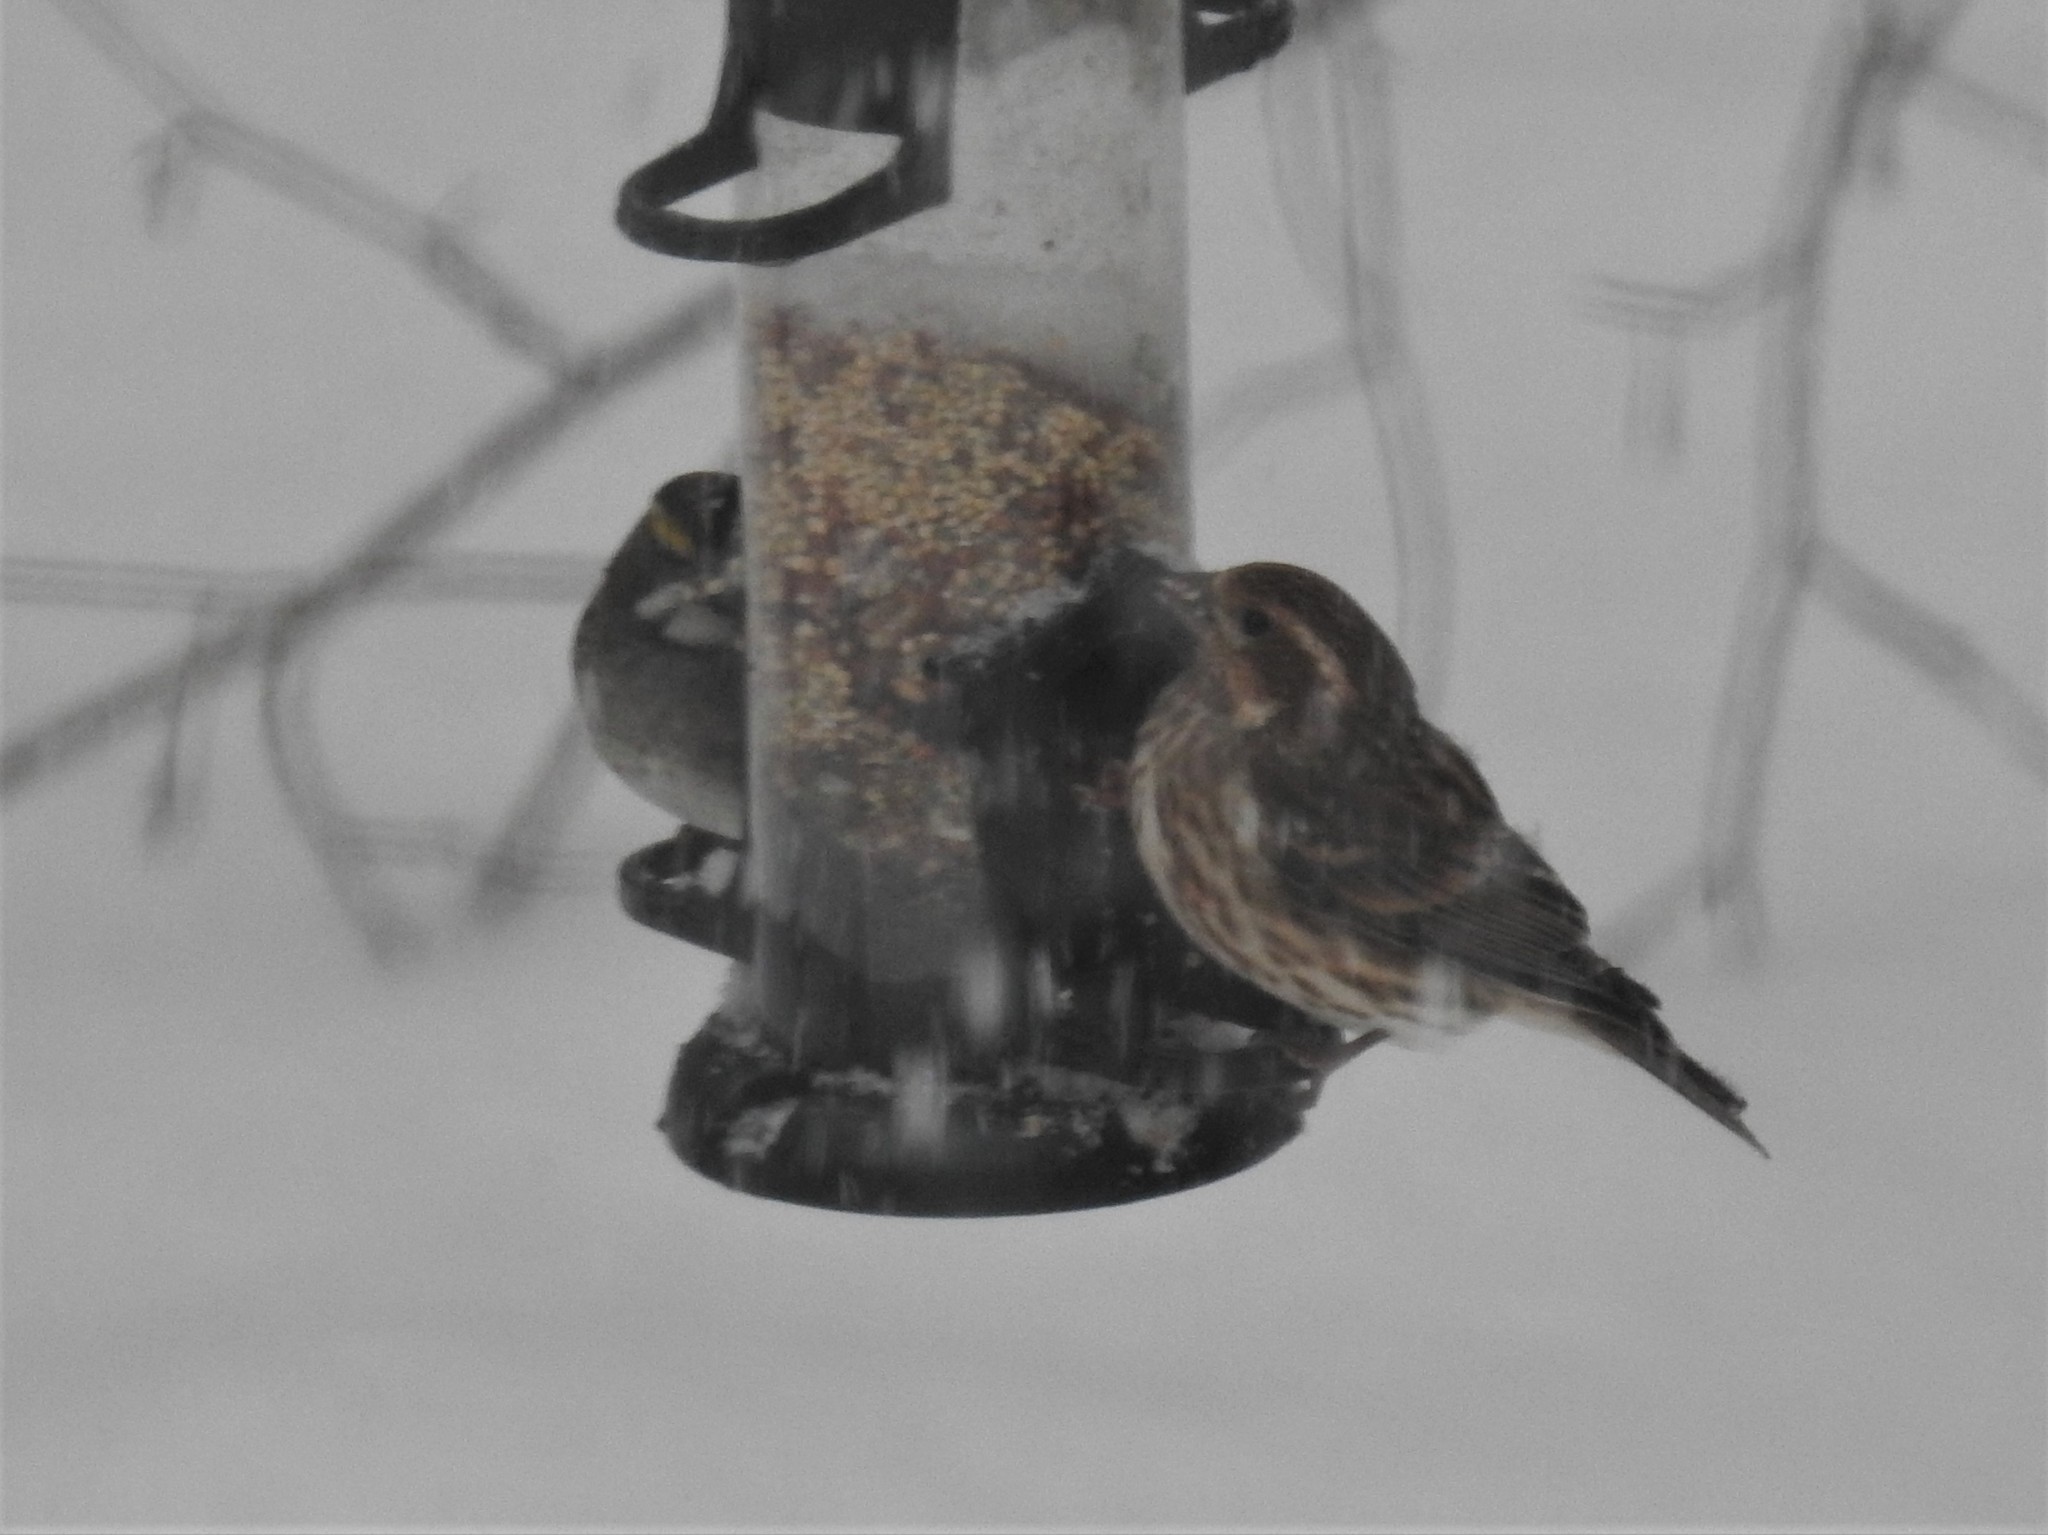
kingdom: Animalia
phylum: Chordata
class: Aves
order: Passeriformes
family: Fringillidae
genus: Haemorhous
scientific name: Haemorhous purpureus
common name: Purple finch
